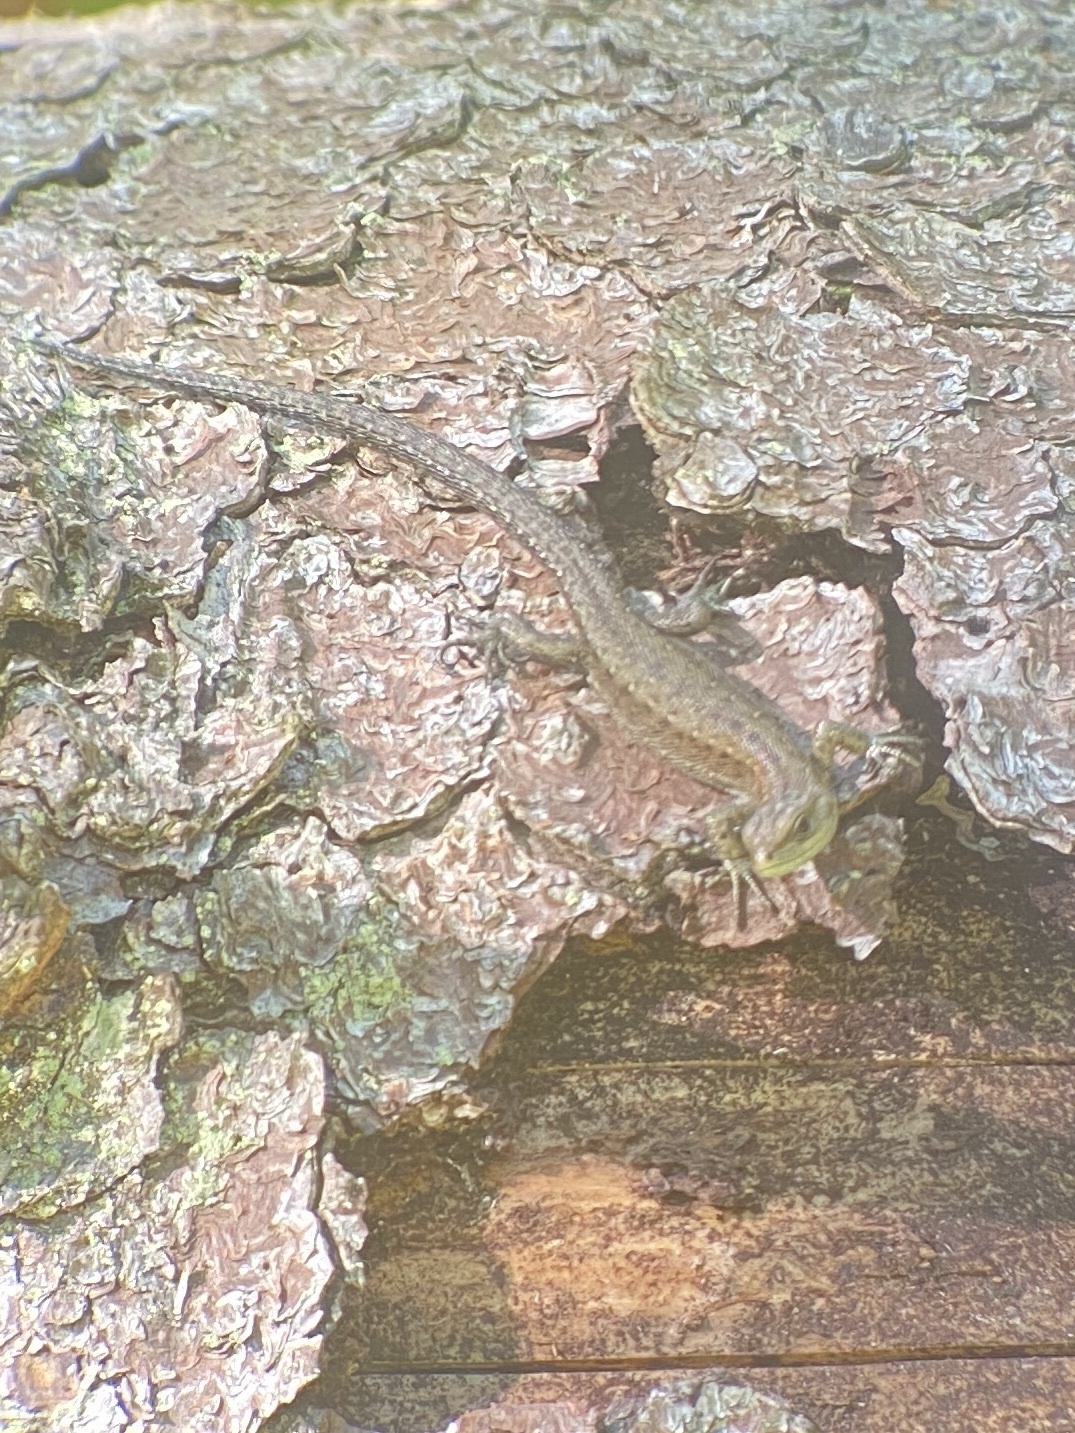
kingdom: Animalia
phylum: Chordata
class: Squamata
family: Lacertidae
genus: Zootoca
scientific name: Zootoca vivipara
